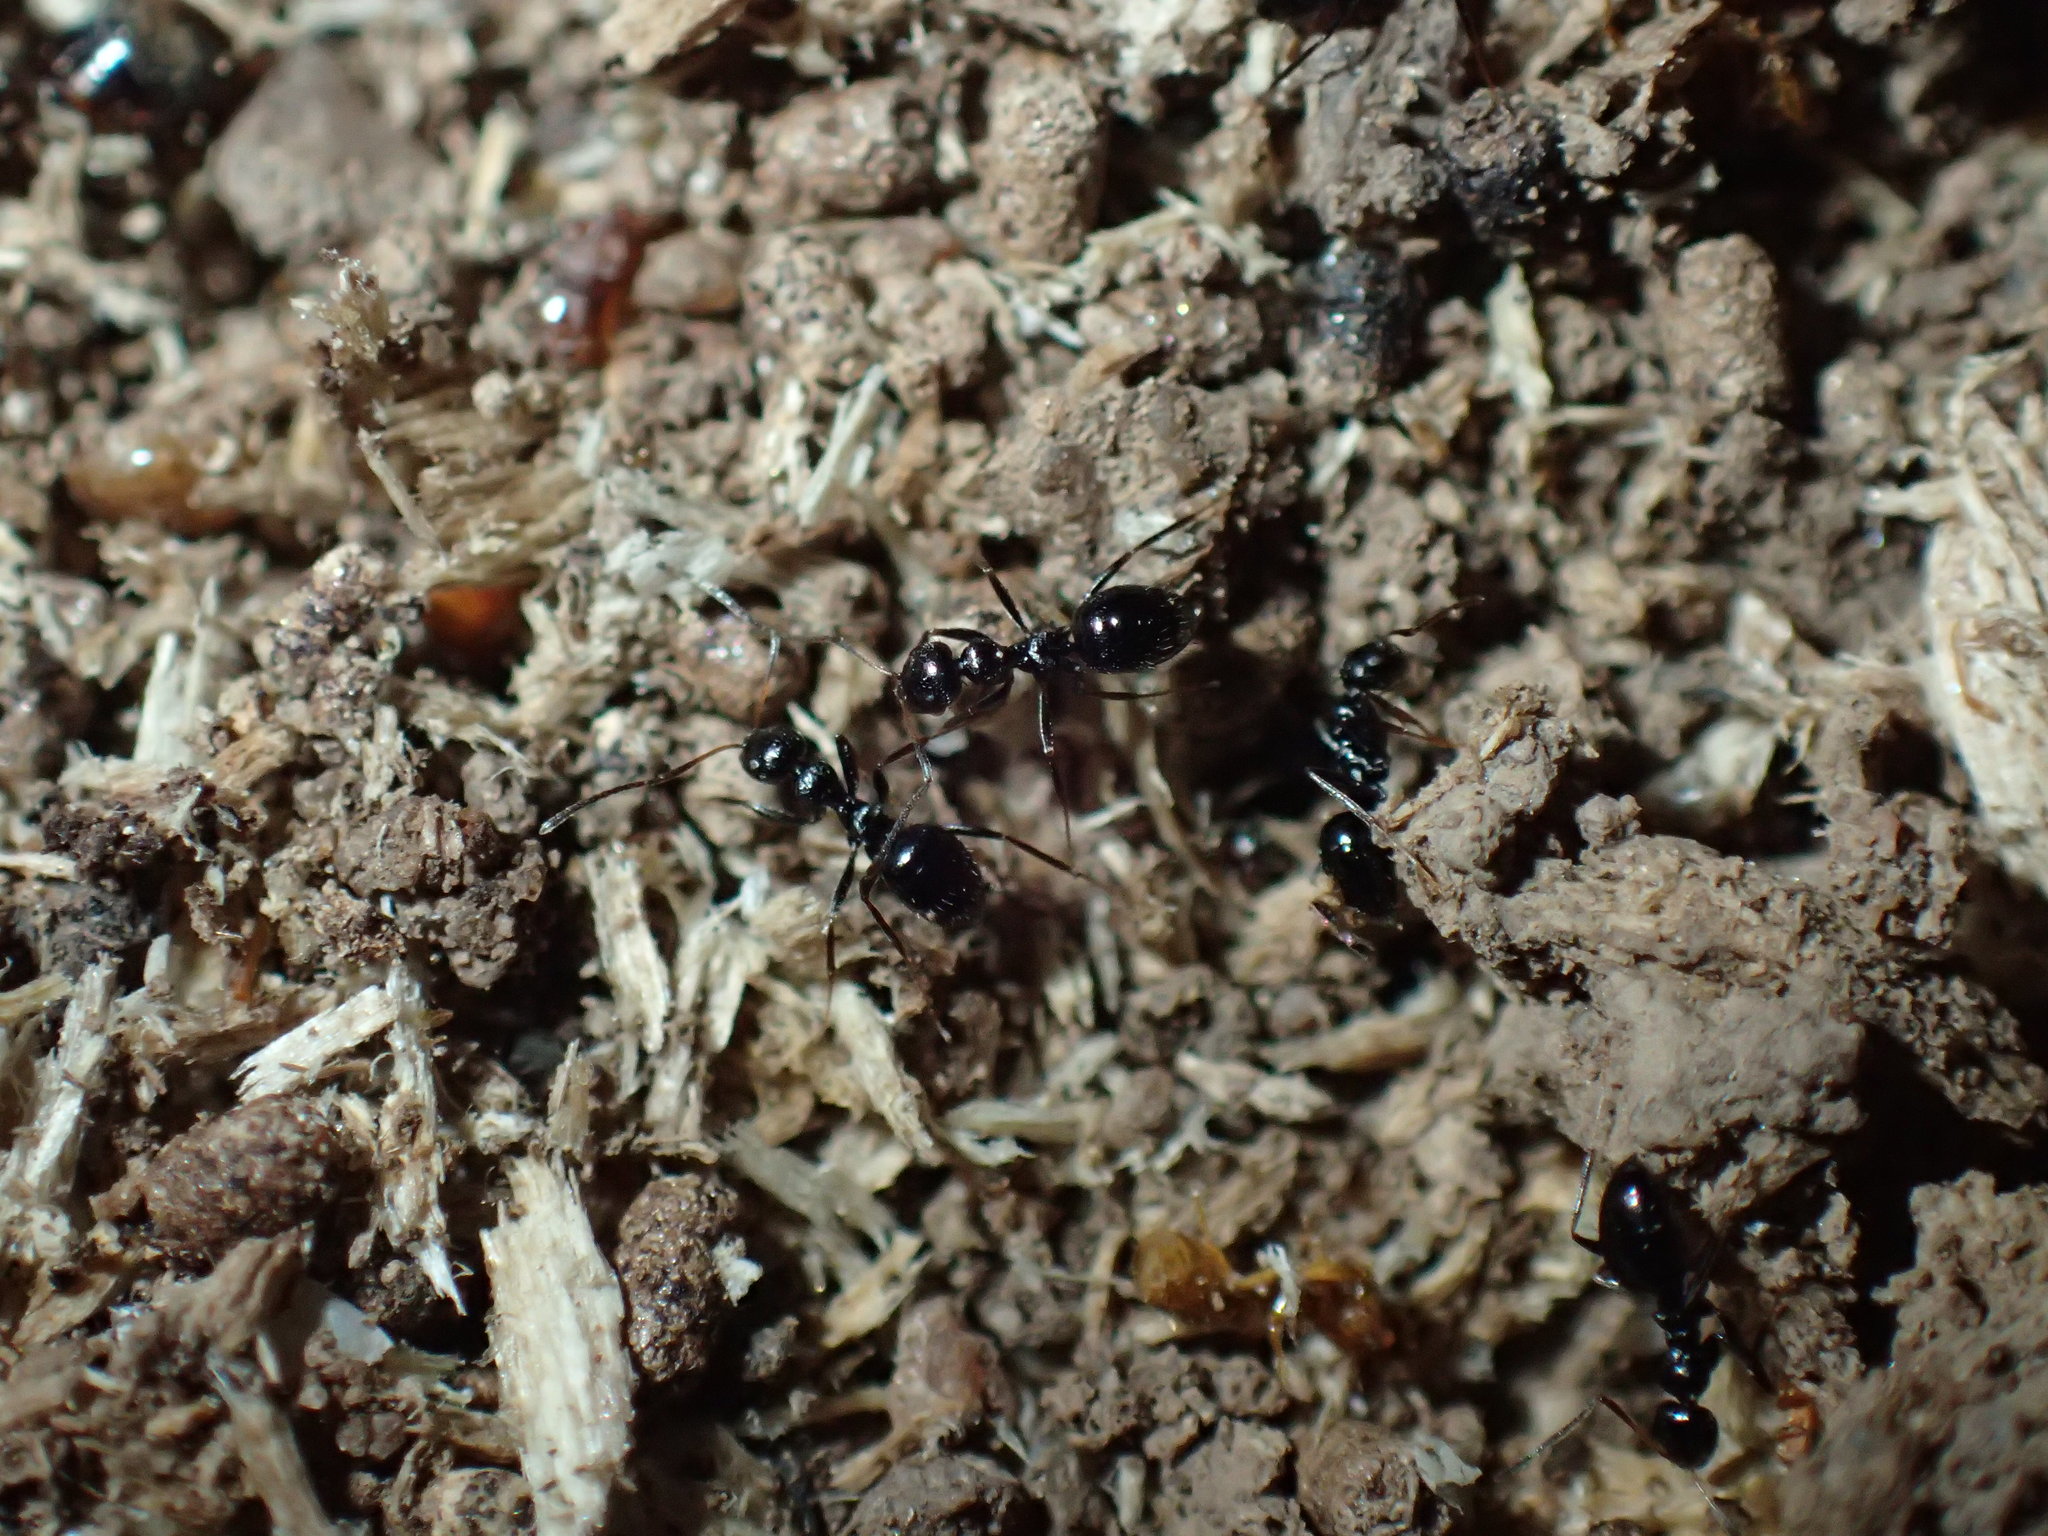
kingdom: Animalia
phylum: Arthropoda
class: Insecta
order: Hymenoptera
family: Formicidae
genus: Lepisiota
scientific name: Lepisiota capensis
